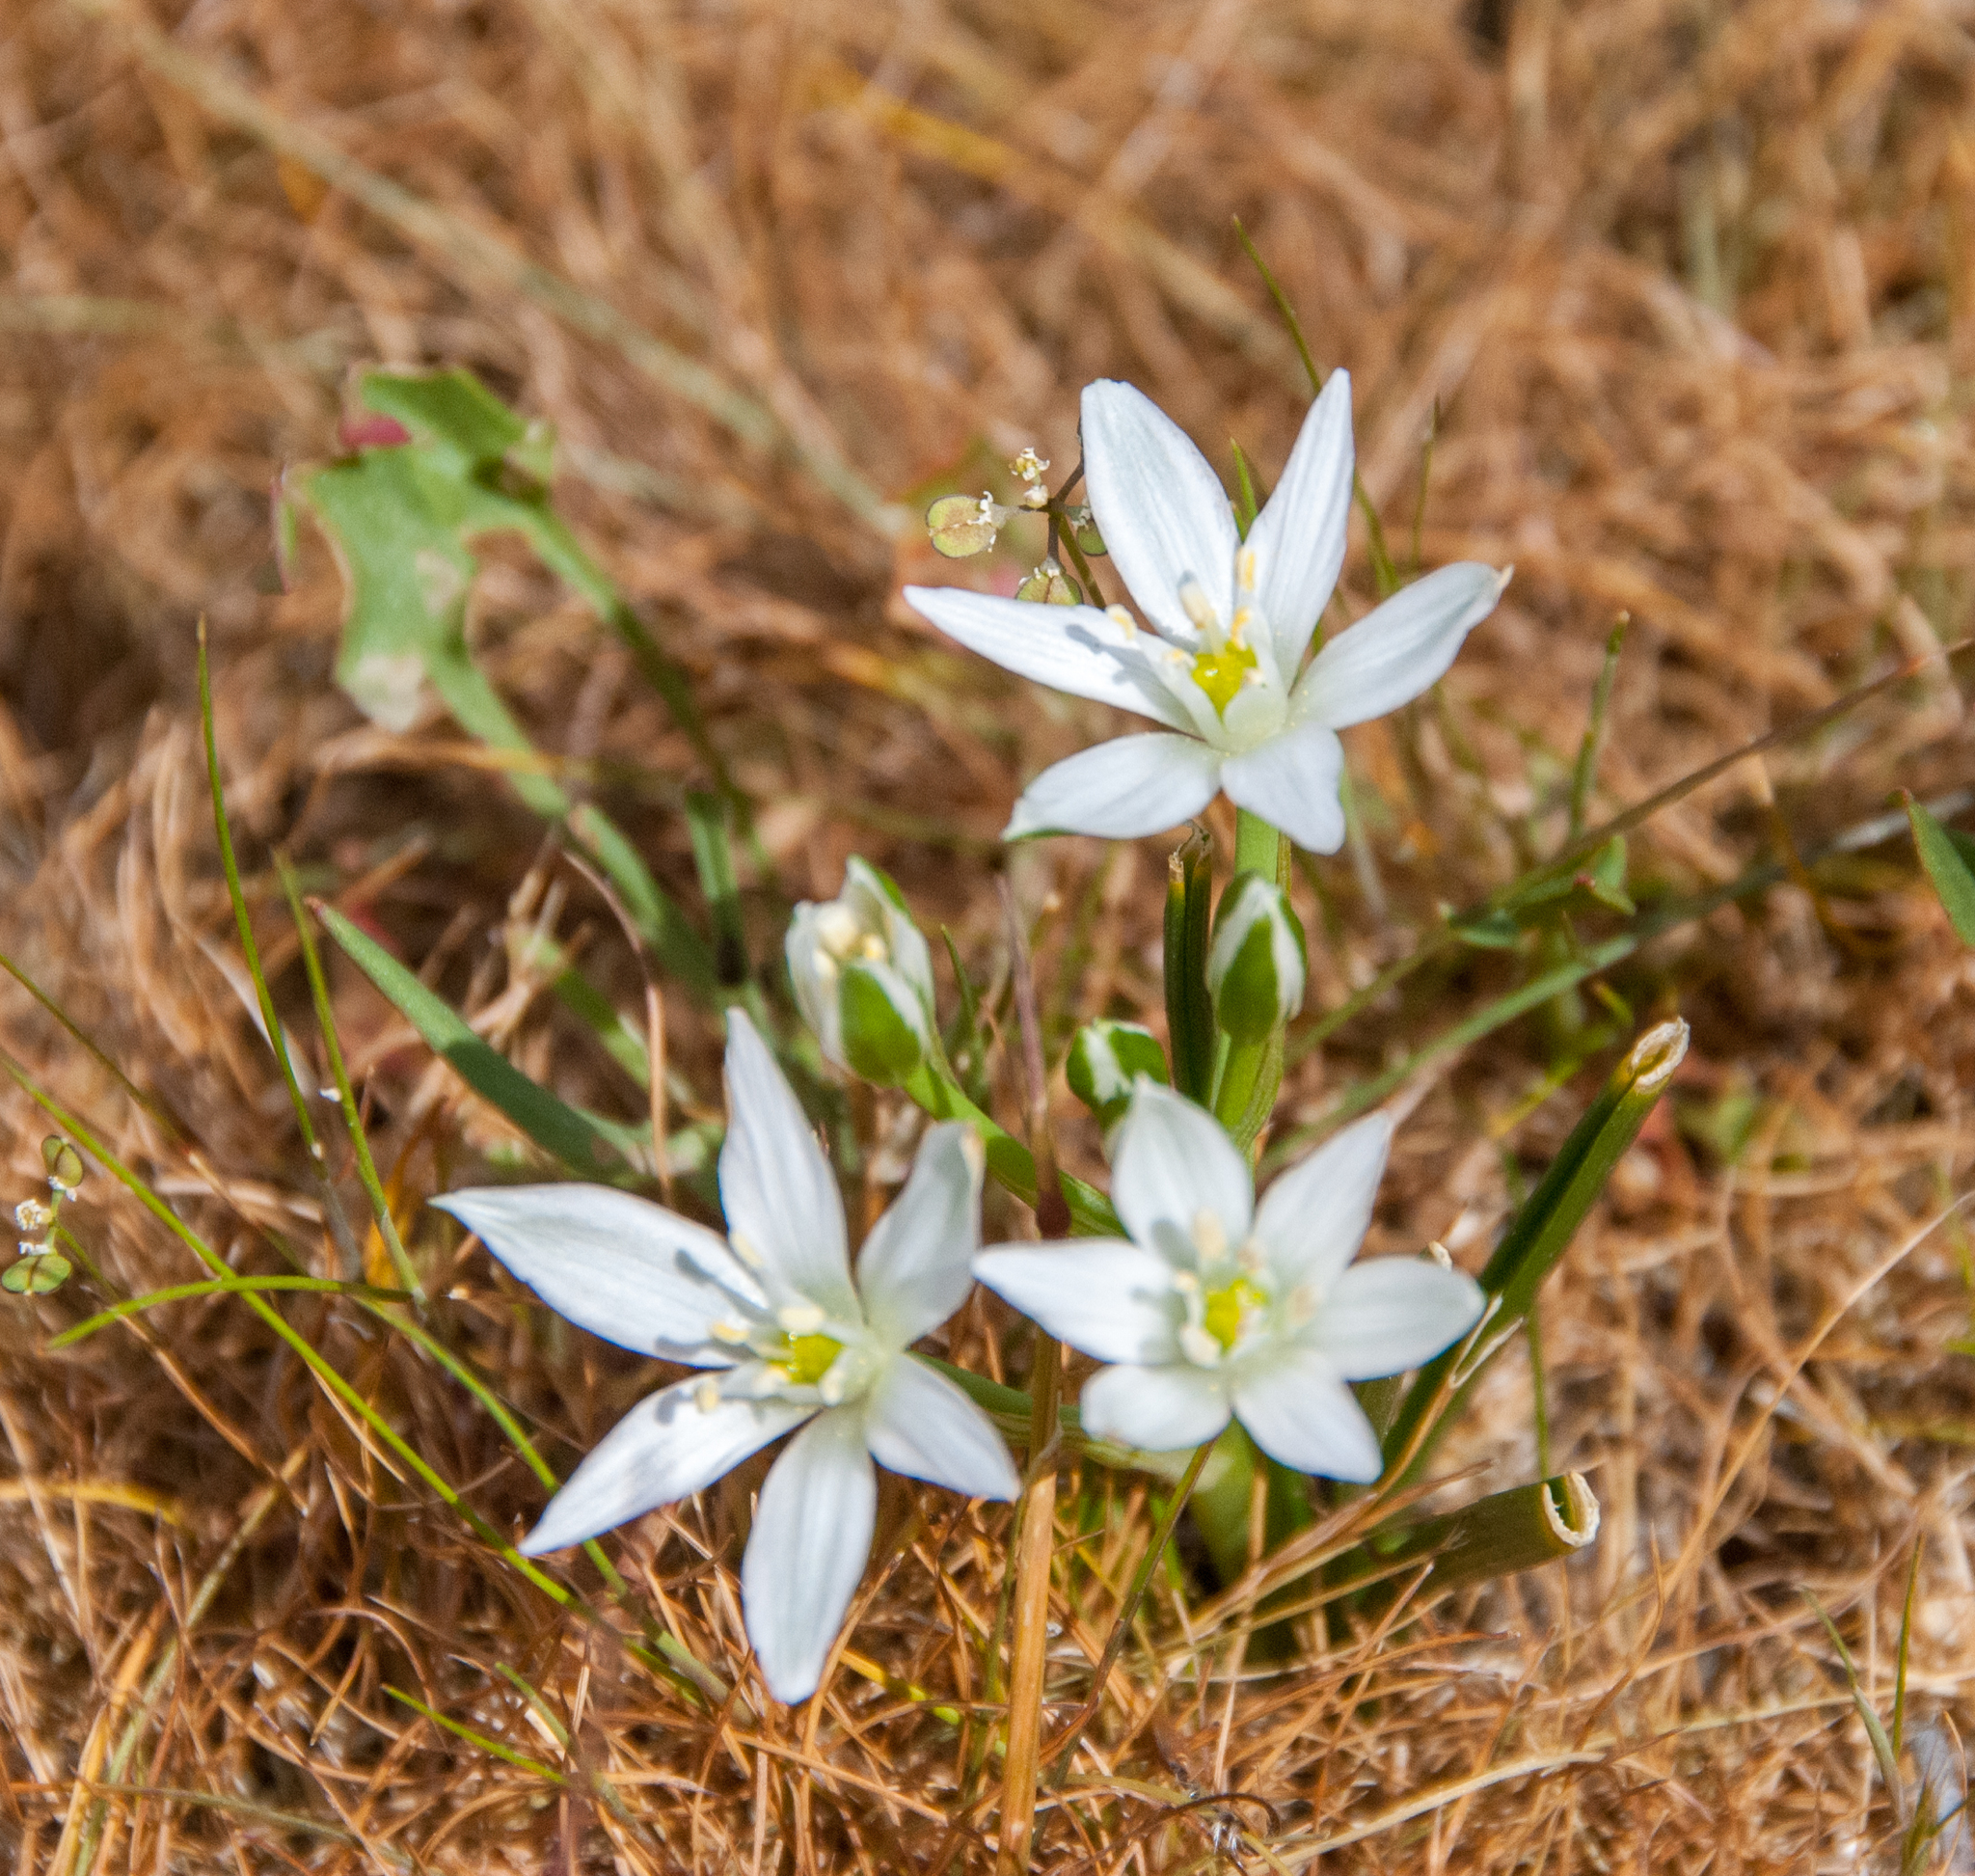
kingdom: Plantae
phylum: Tracheophyta
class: Liliopsida
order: Asparagales
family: Asparagaceae
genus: Ornithogalum
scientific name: Ornithogalum umbellatum
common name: Garden star-of-bethlehem
